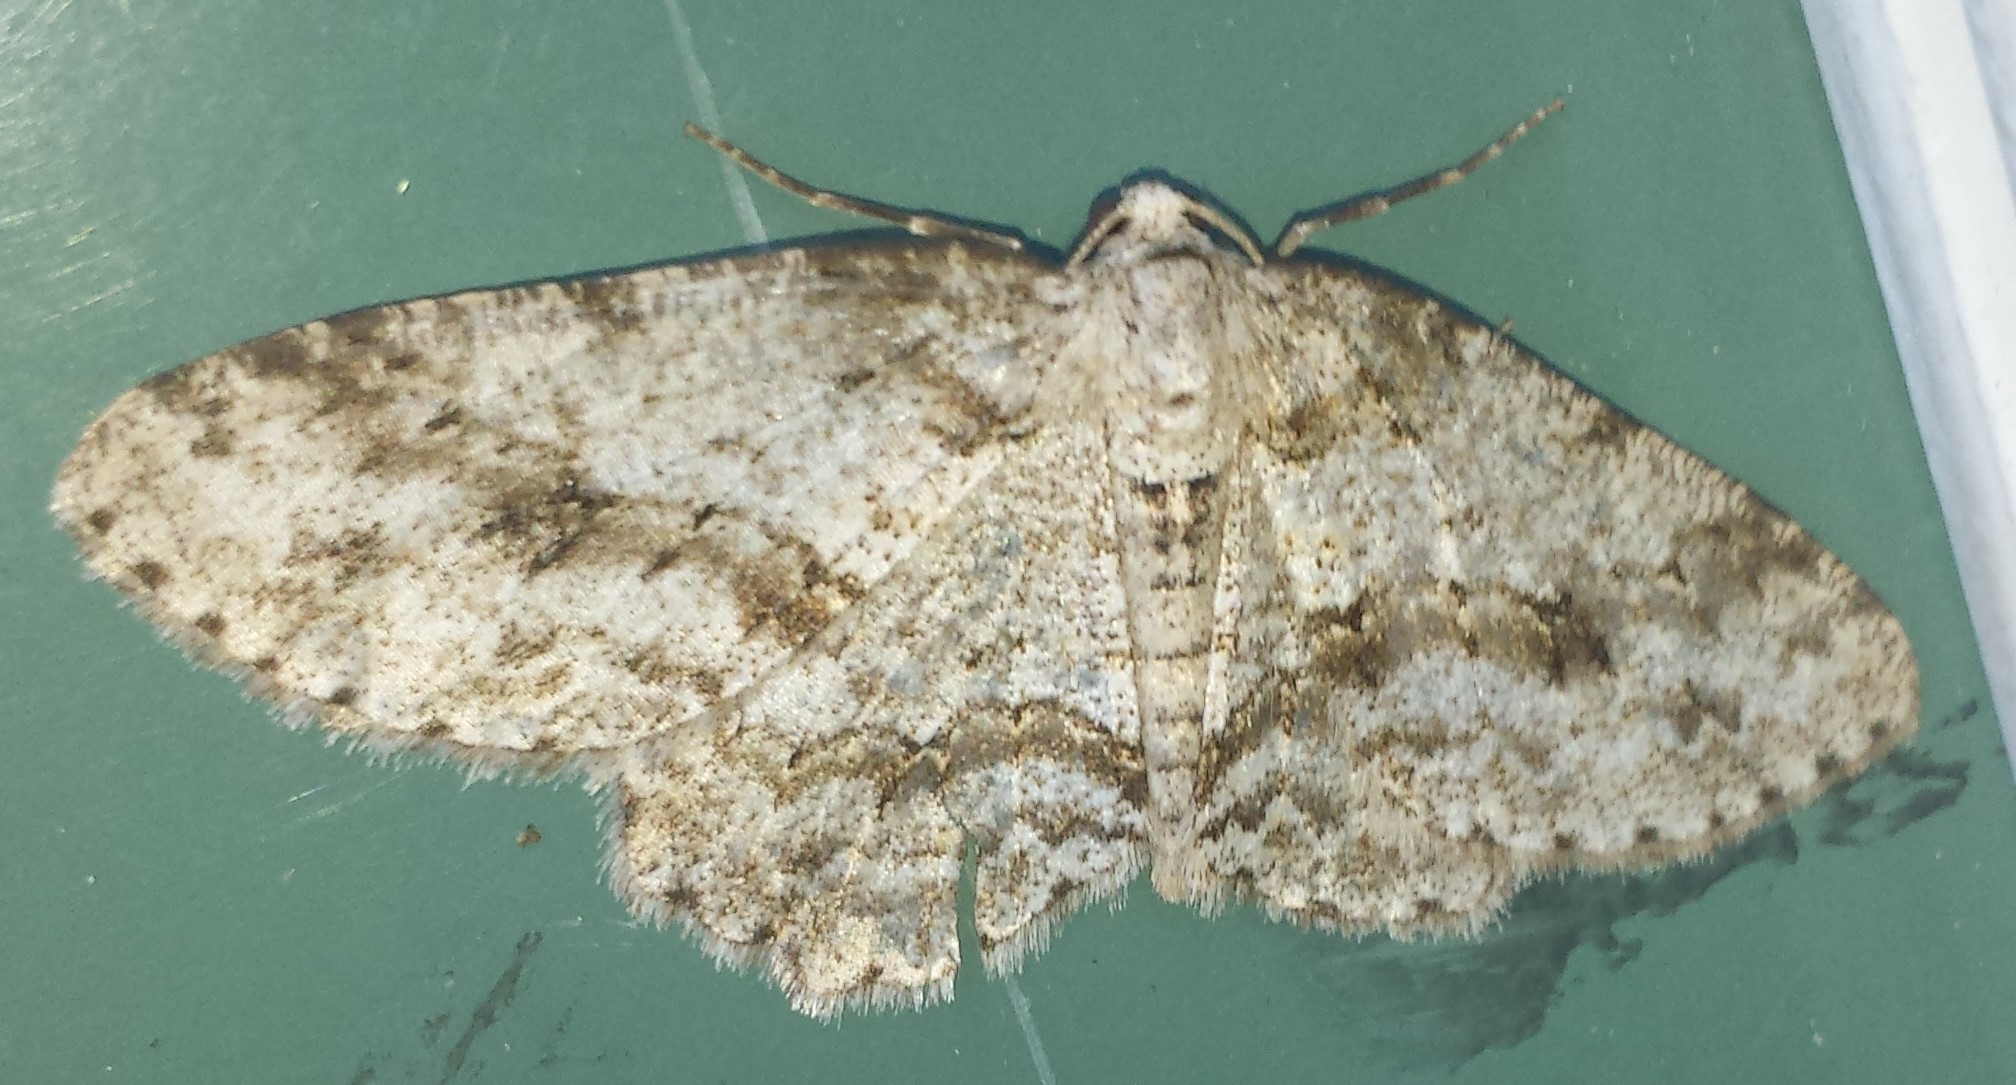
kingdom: Animalia
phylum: Arthropoda
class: Insecta
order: Lepidoptera
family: Geometridae
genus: Ectropis
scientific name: Ectropis crepuscularia
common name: Engrailed
